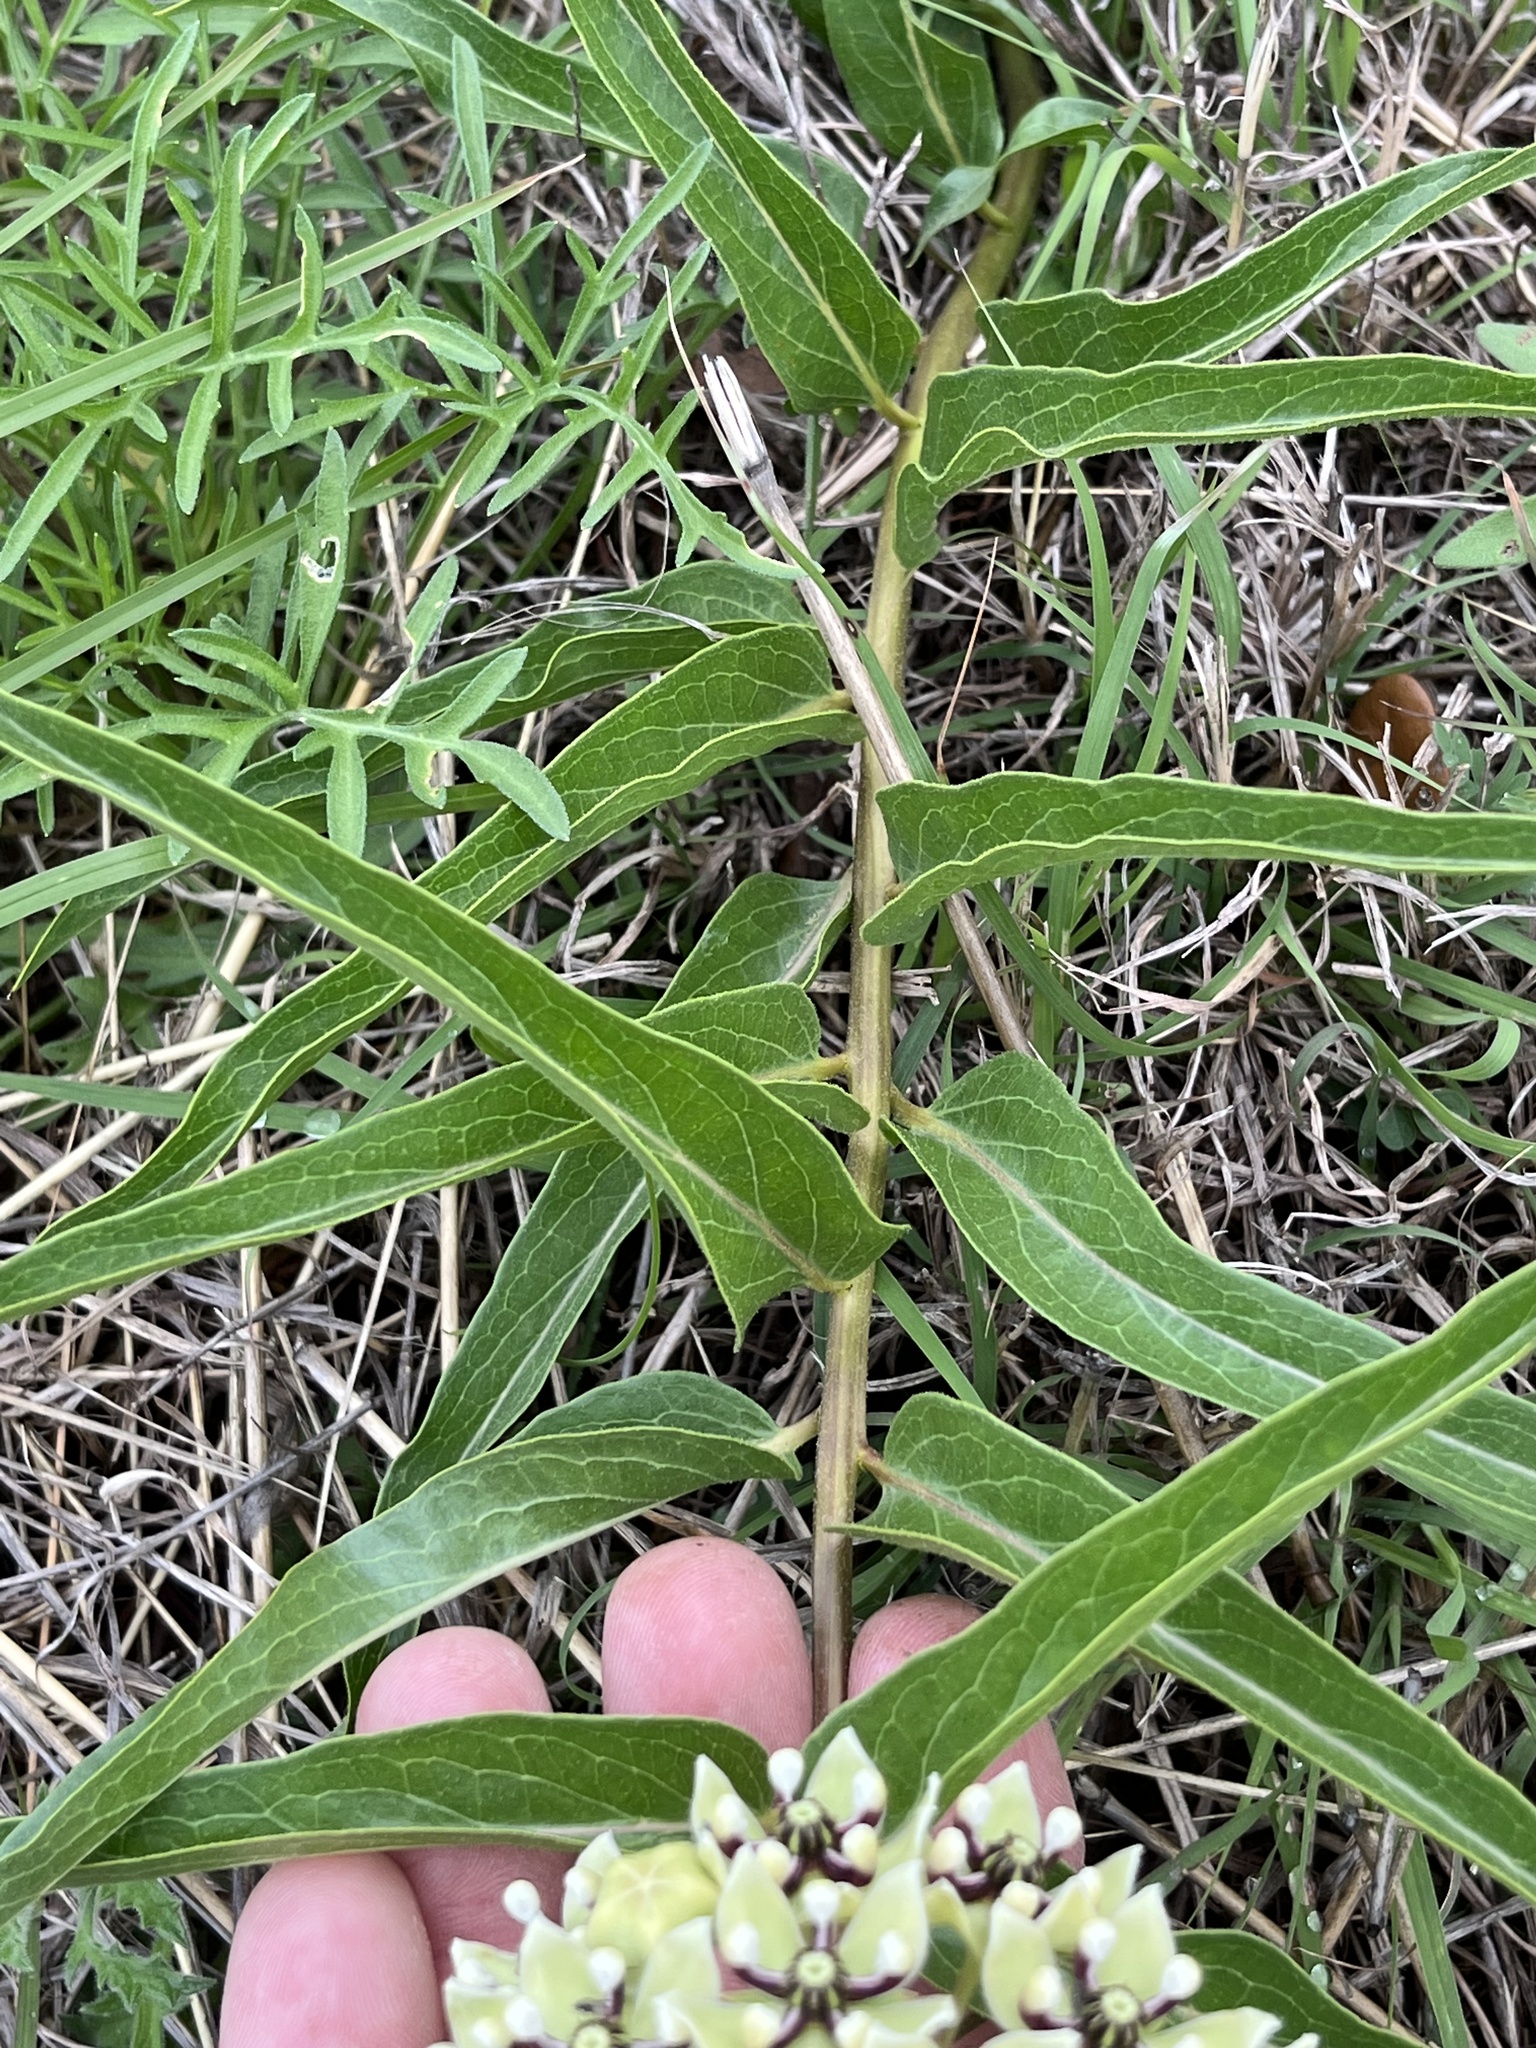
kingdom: Plantae
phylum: Tracheophyta
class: Magnoliopsida
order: Gentianales
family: Apocynaceae
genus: Asclepias
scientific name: Asclepias asperula
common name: Antelope horns
